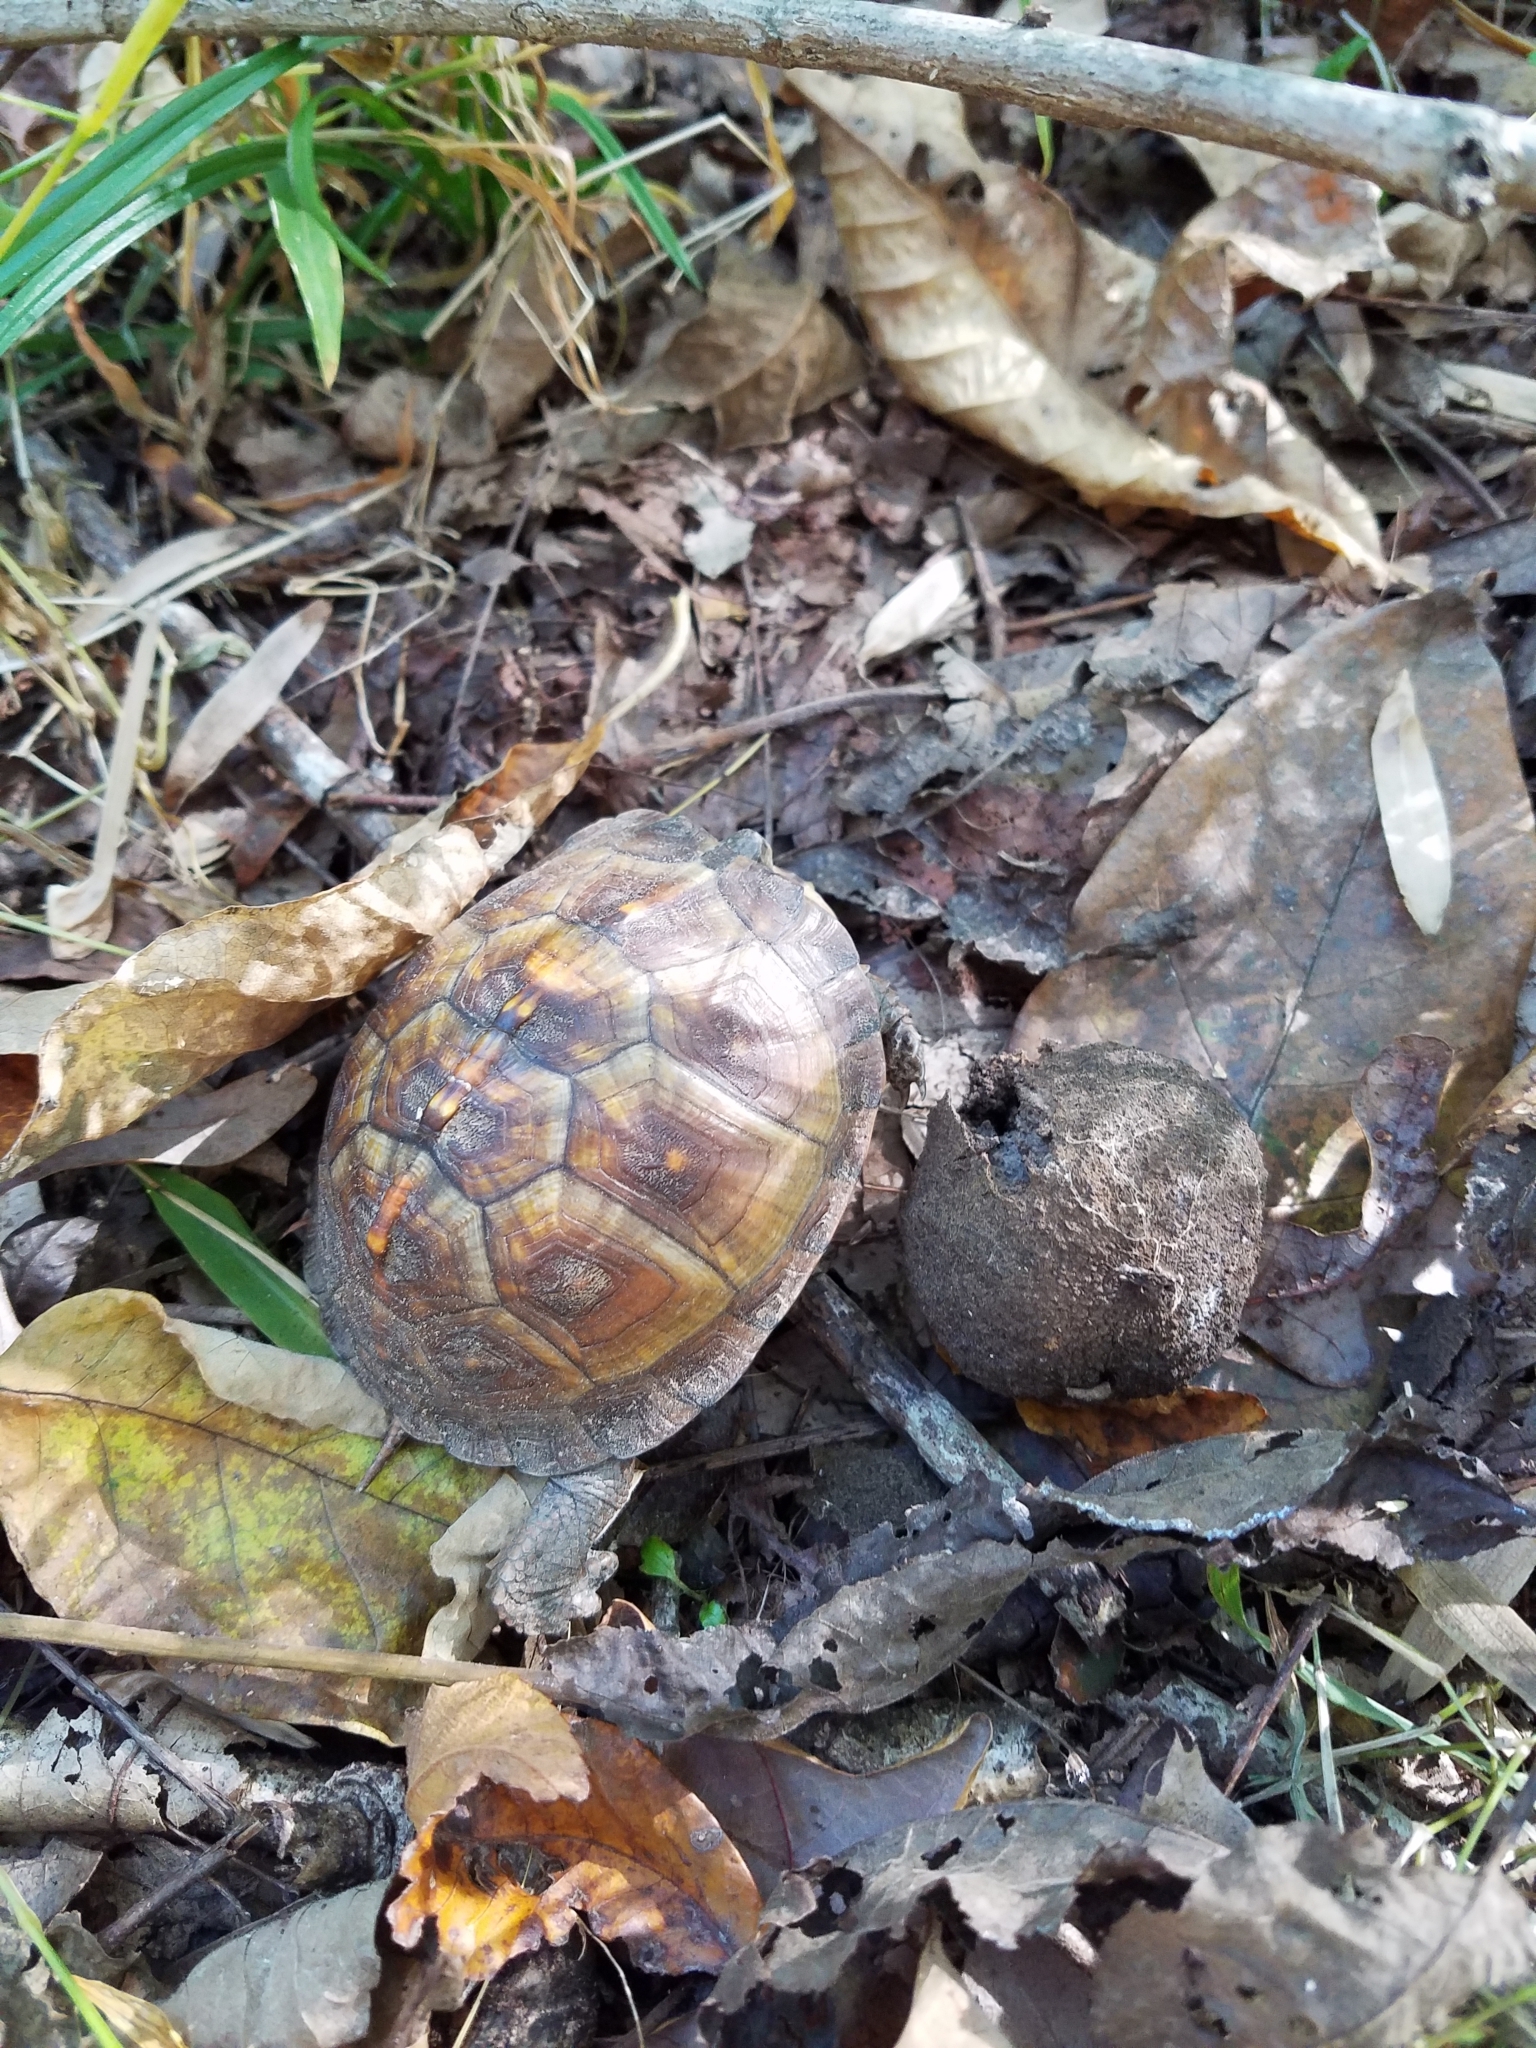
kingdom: Animalia
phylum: Chordata
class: Testudines
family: Emydidae
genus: Terrapene
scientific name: Terrapene carolina
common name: Common box turtle
